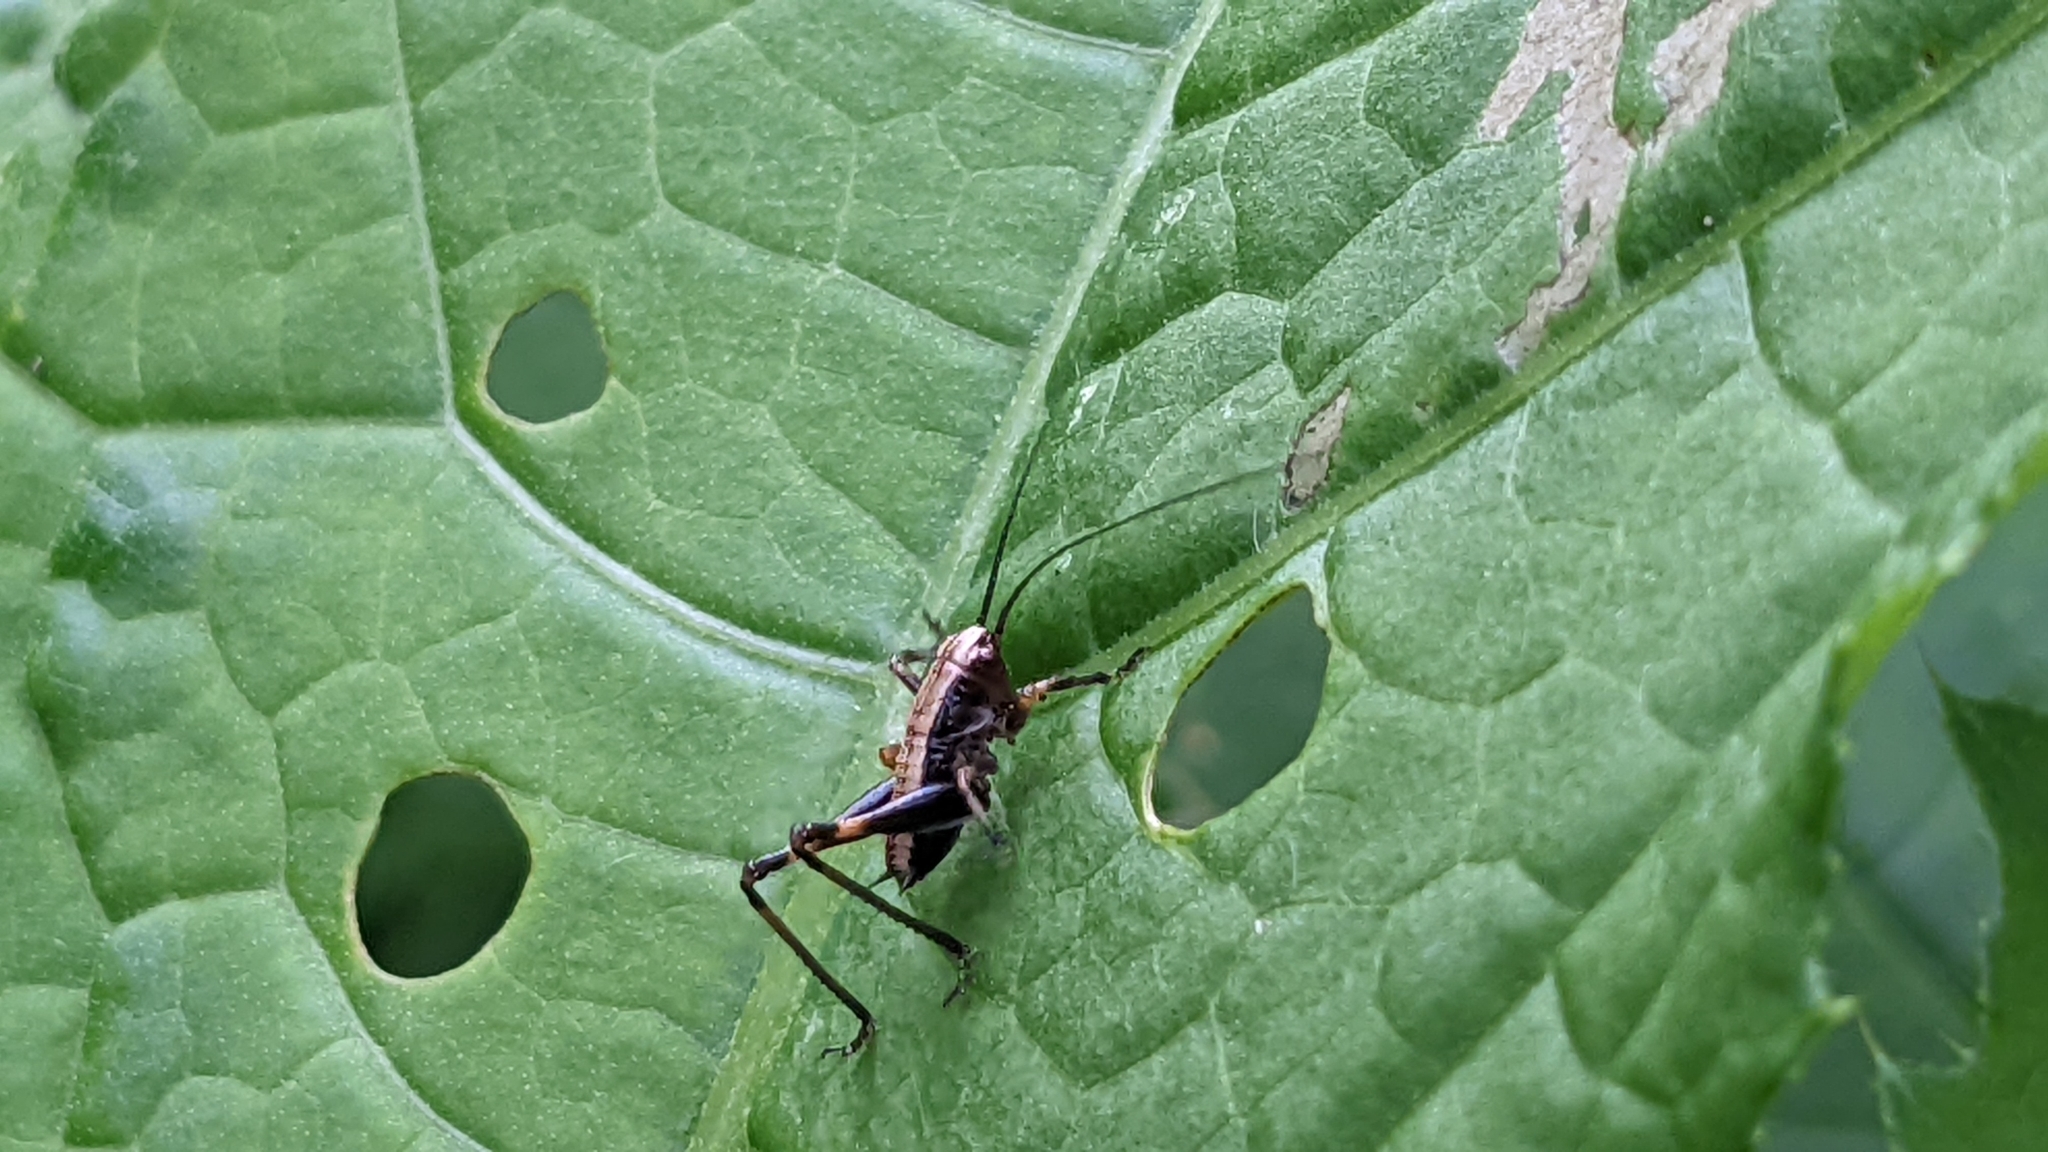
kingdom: Animalia
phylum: Arthropoda
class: Insecta
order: Orthoptera
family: Tettigoniidae
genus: Pholidoptera
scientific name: Pholidoptera griseoaptera
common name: Dark bush-cricket
